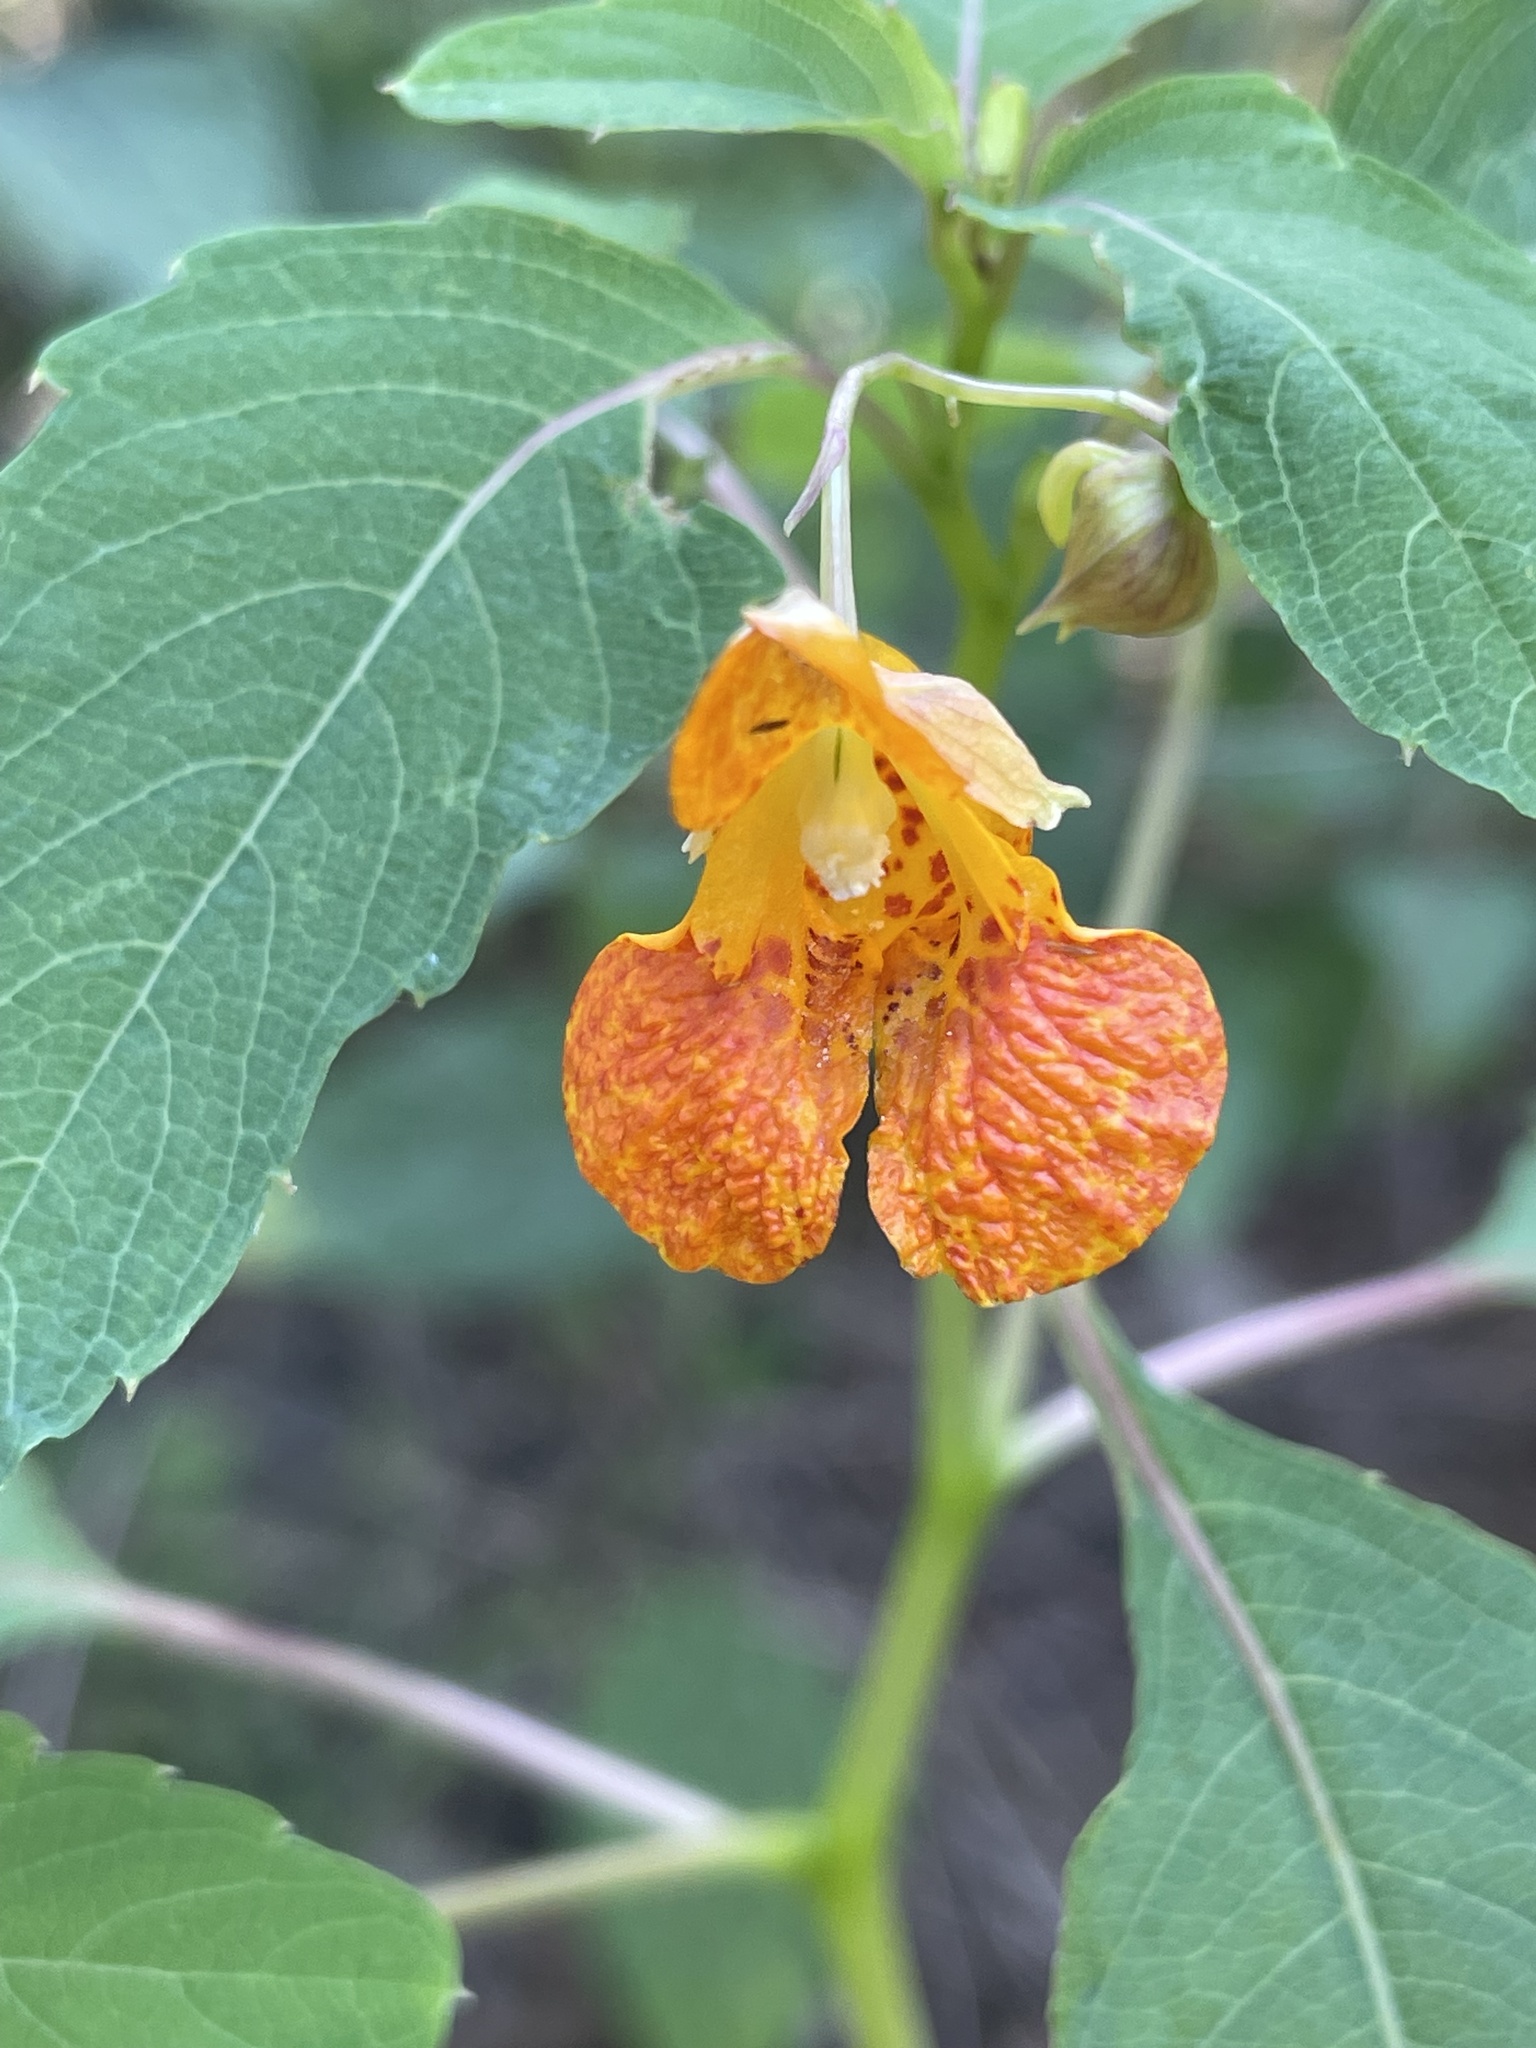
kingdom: Plantae
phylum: Tracheophyta
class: Magnoliopsida
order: Ericales
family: Balsaminaceae
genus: Impatiens
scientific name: Impatiens capensis
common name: Orange balsam
